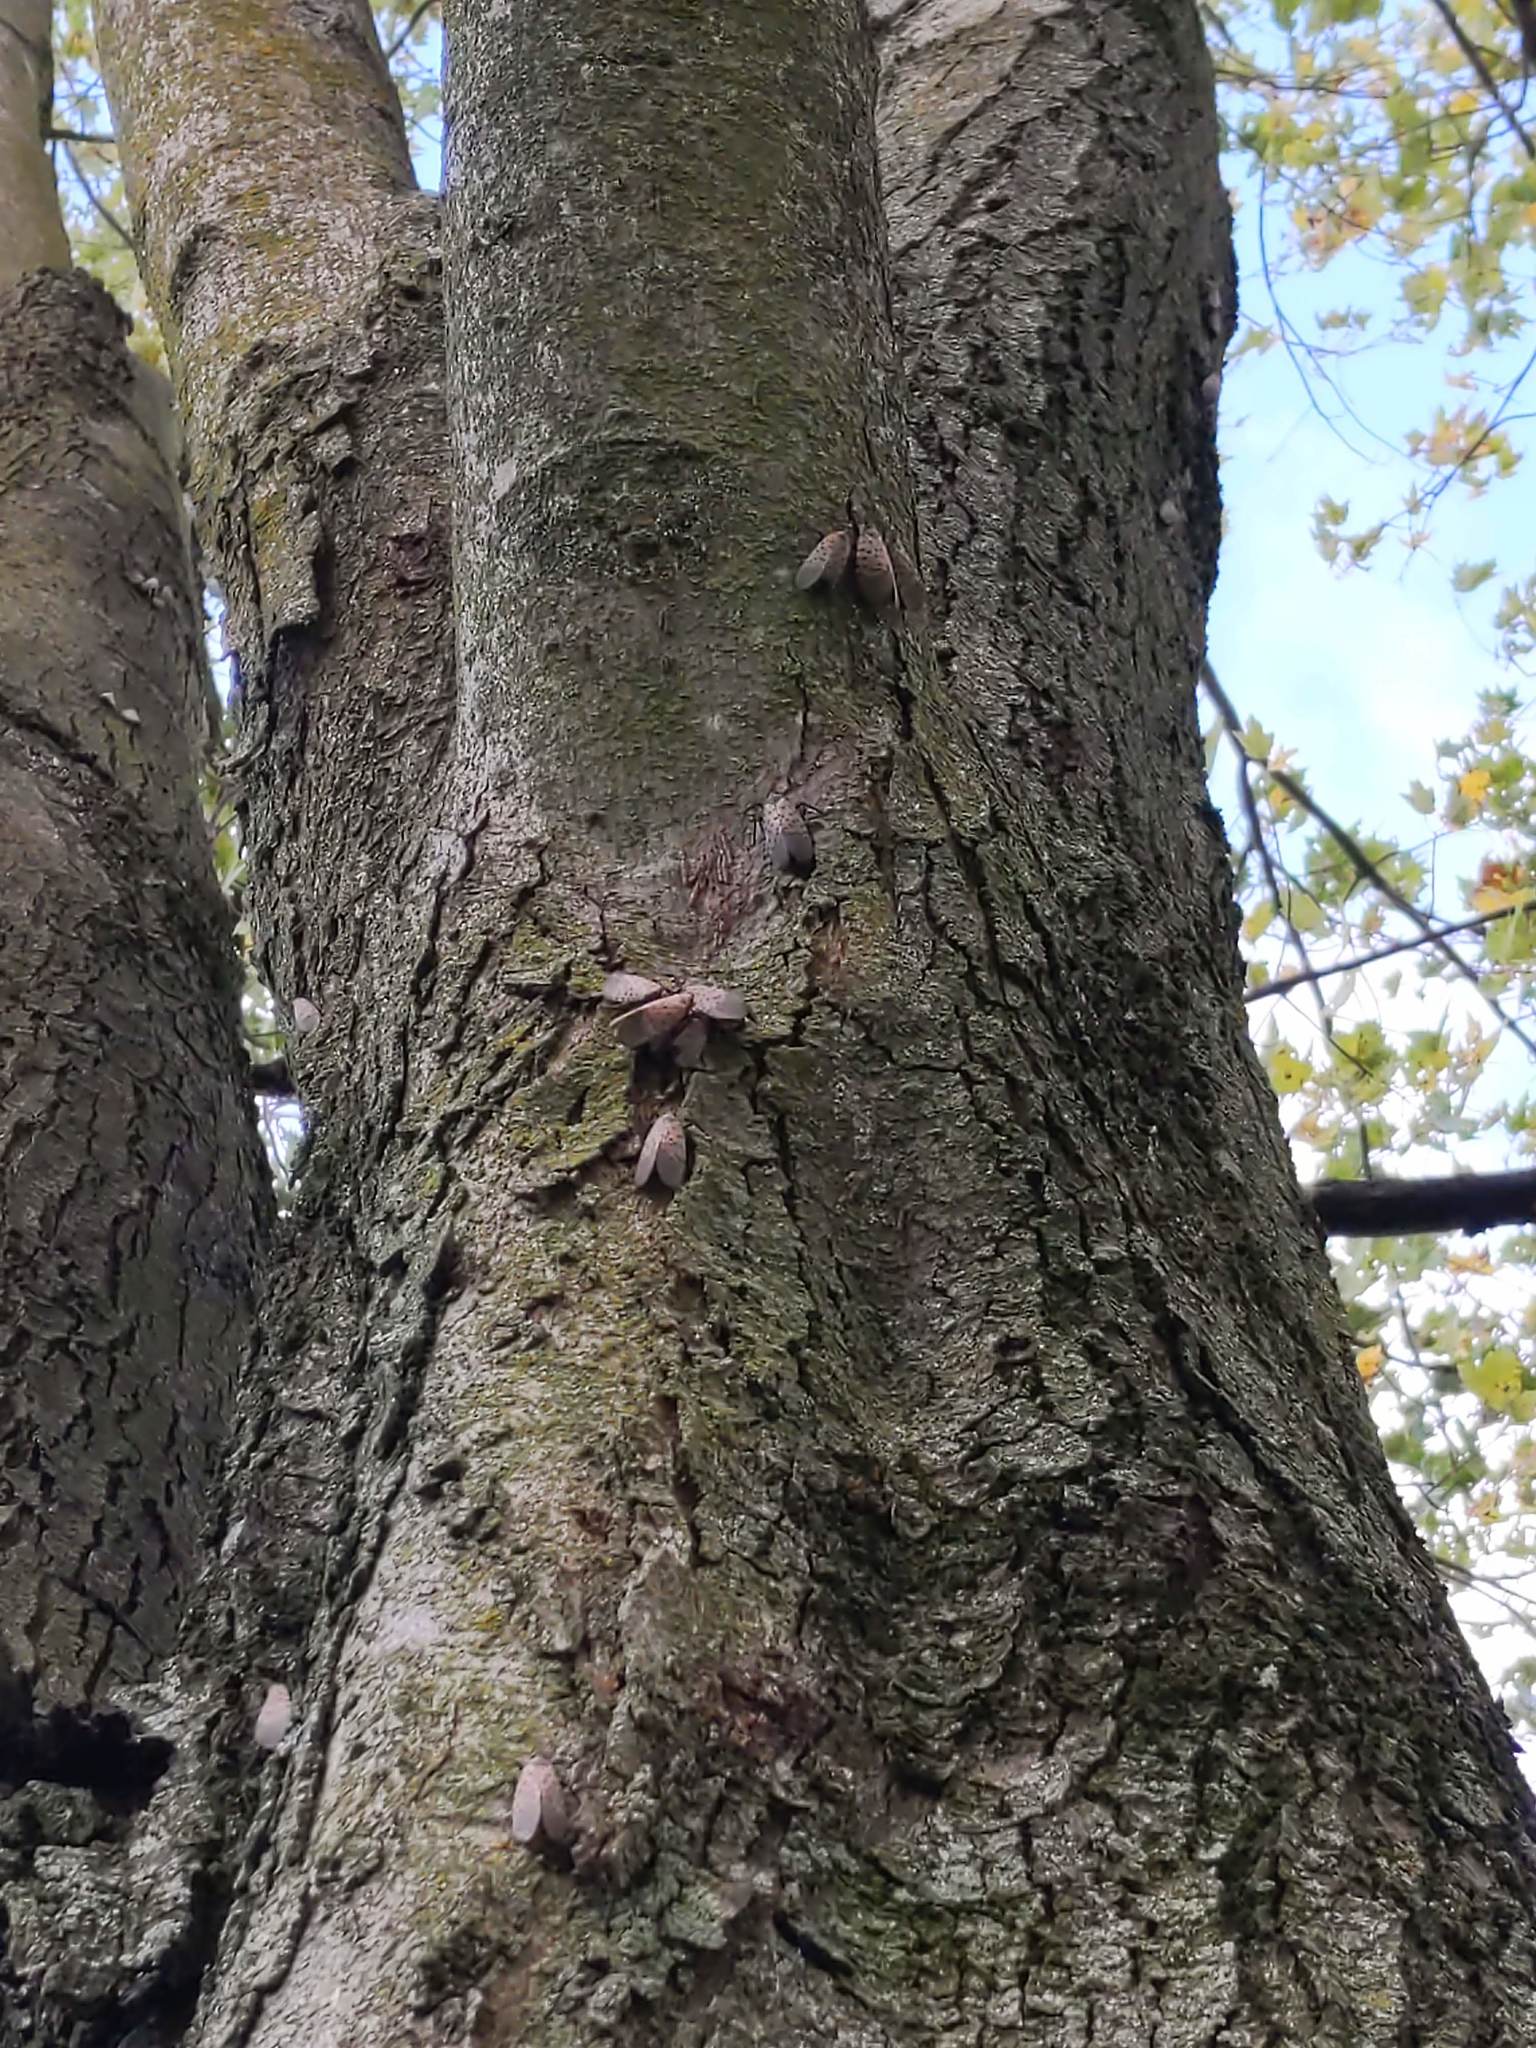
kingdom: Animalia
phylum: Arthropoda
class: Insecta
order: Hemiptera
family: Fulgoridae
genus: Lycorma
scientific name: Lycorma delicatula
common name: Spotted lanternfly
